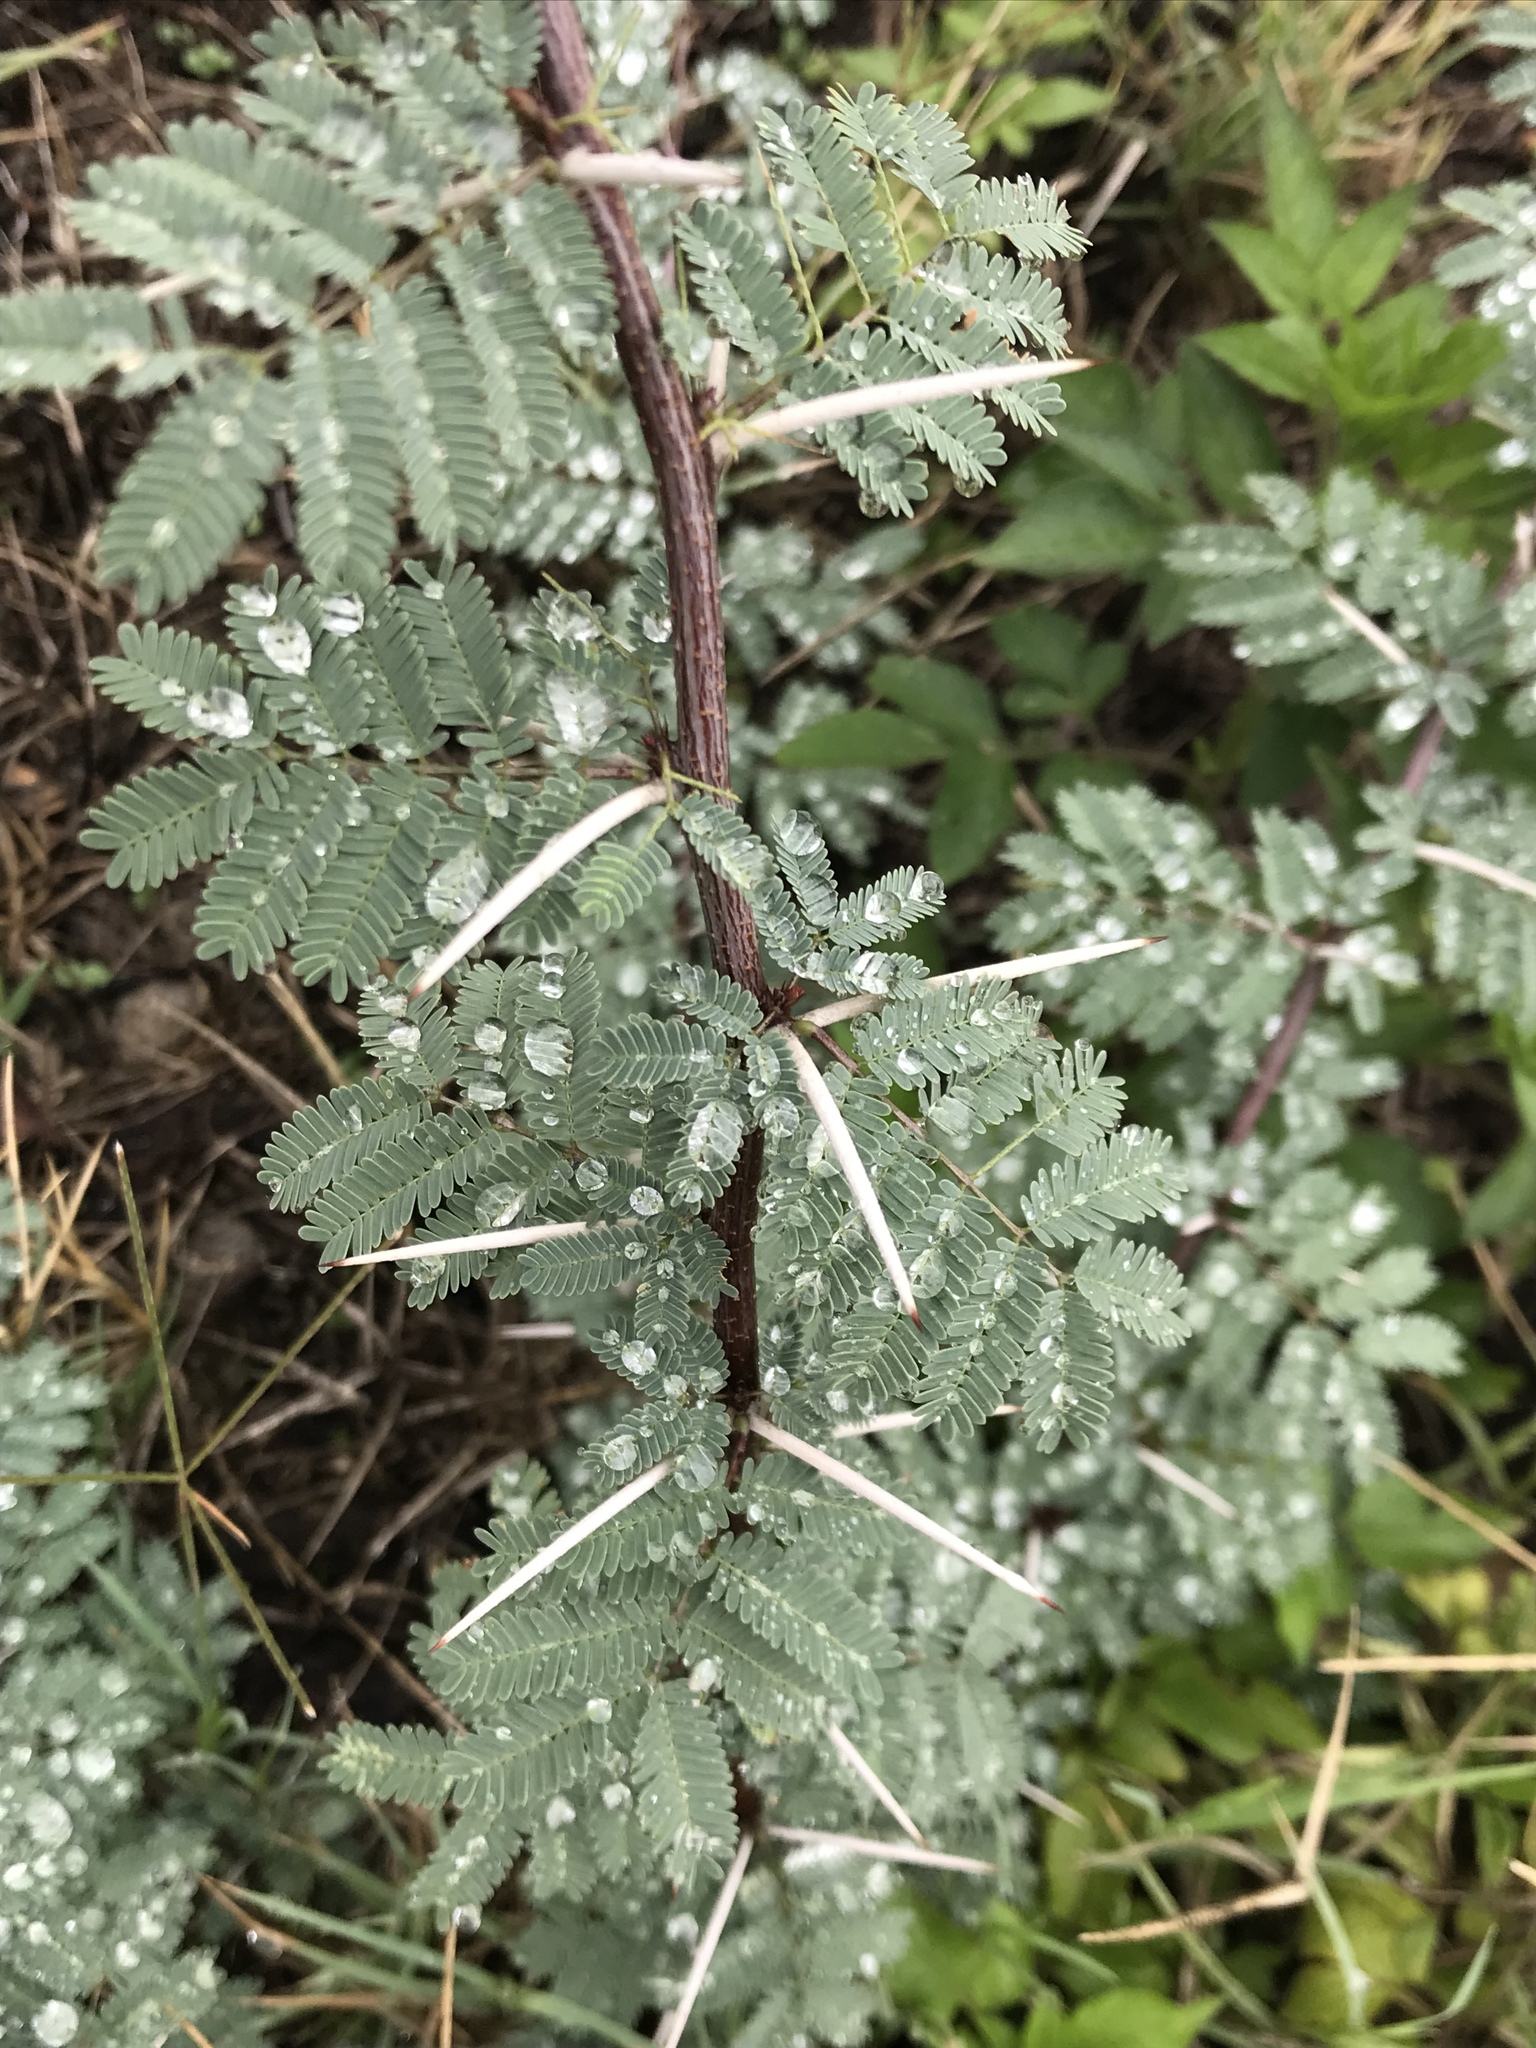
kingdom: Plantae
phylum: Tracheophyta
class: Magnoliopsida
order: Fabales
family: Fabaceae
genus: Vachellia
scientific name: Vachellia farnesiana
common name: Sweet acacia
